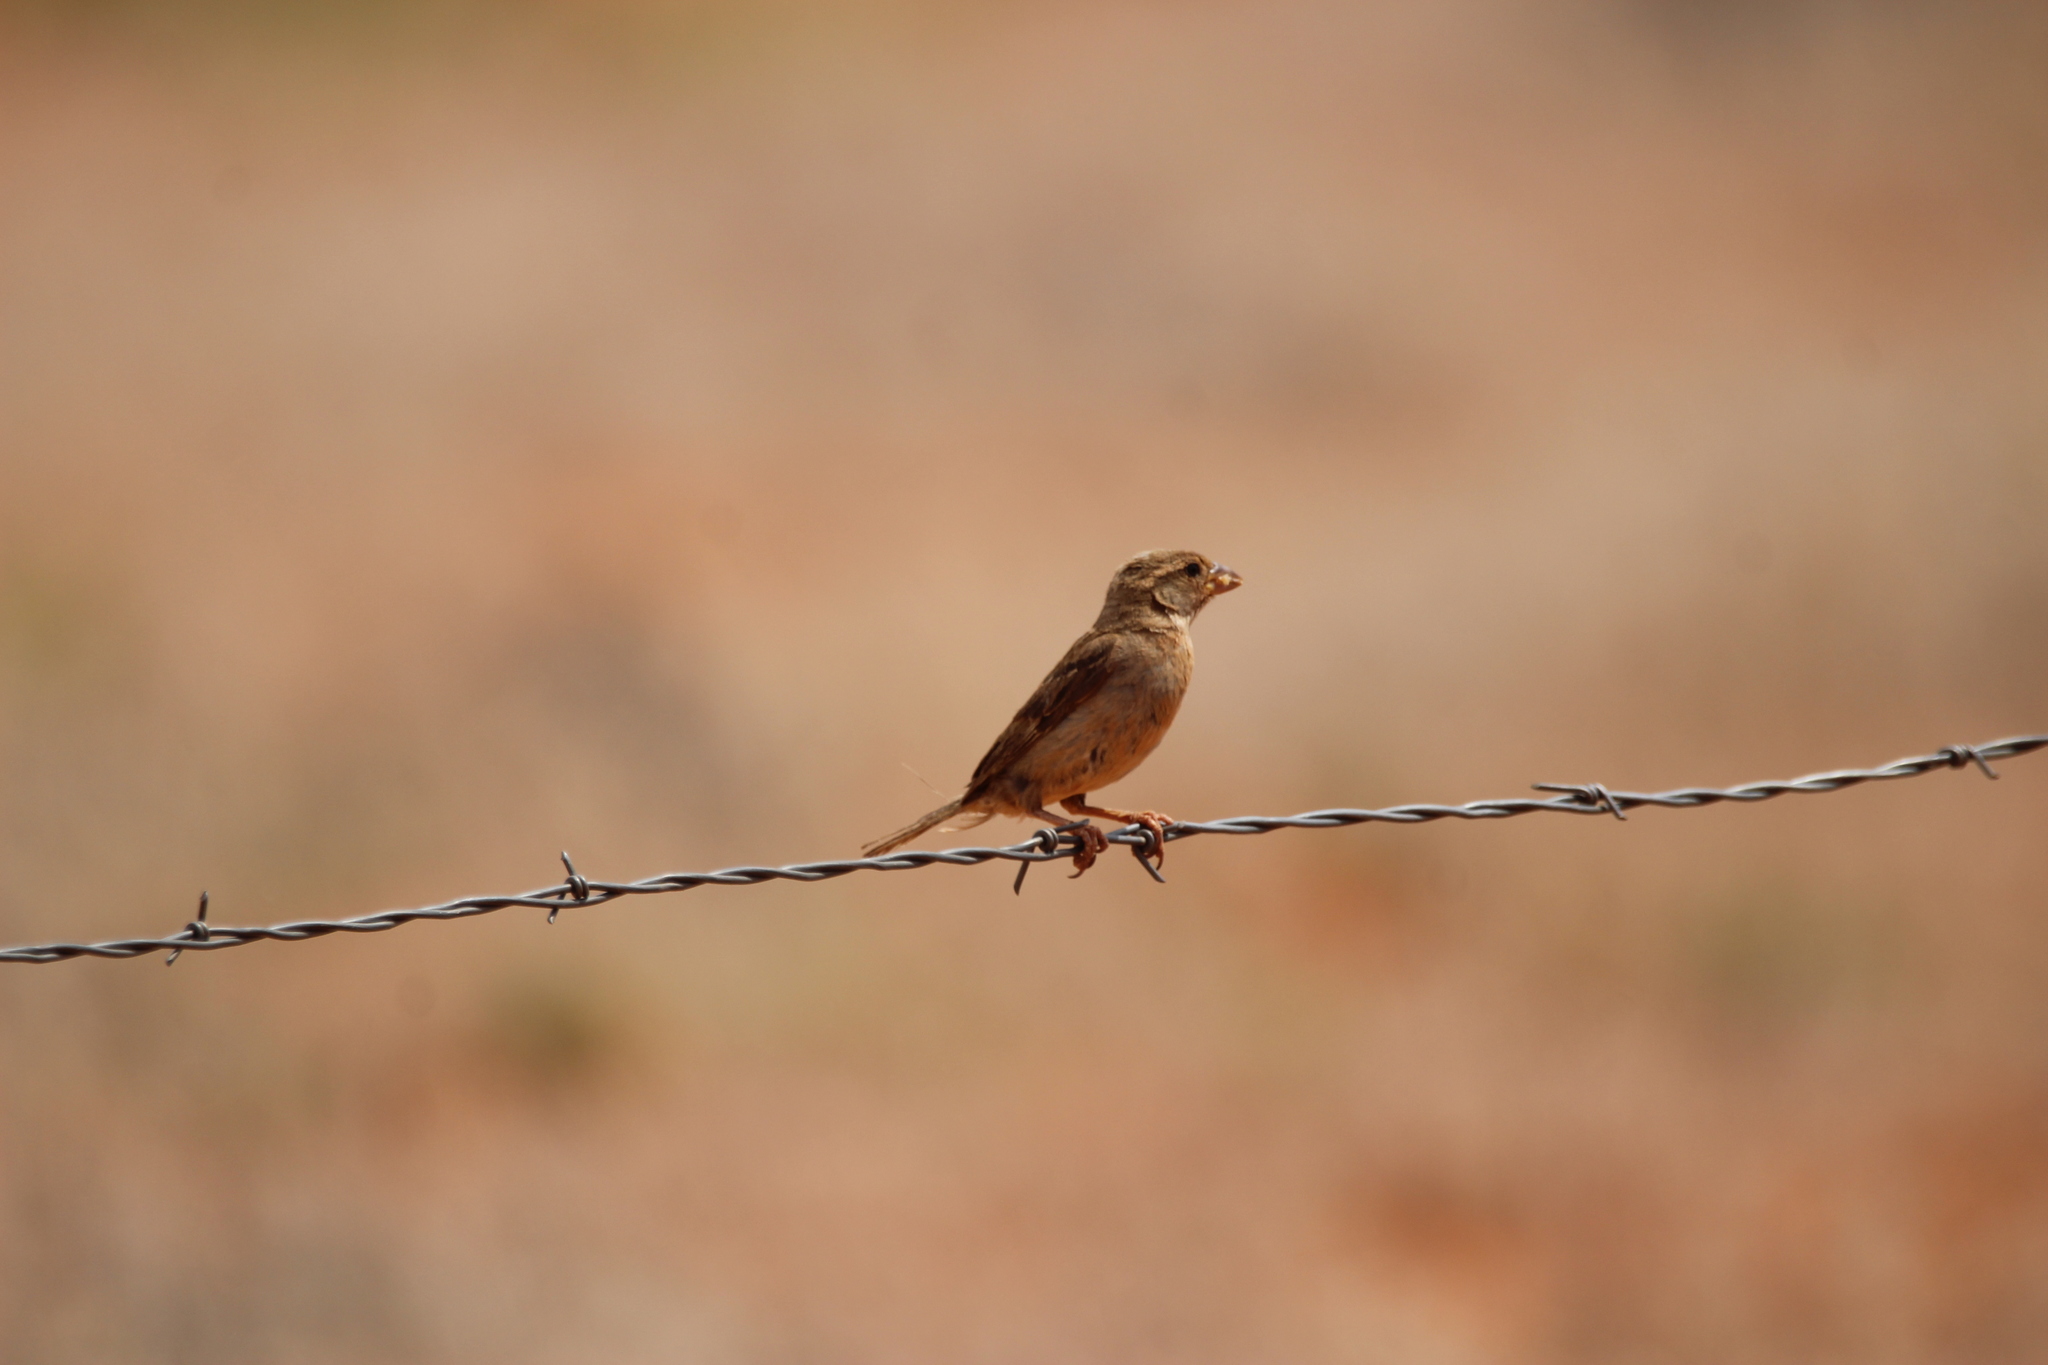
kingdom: Animalia
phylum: Chordata
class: Aves
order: Passeriformes
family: Passeridae
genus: Passer
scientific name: Passer domesticus
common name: House sparrow
